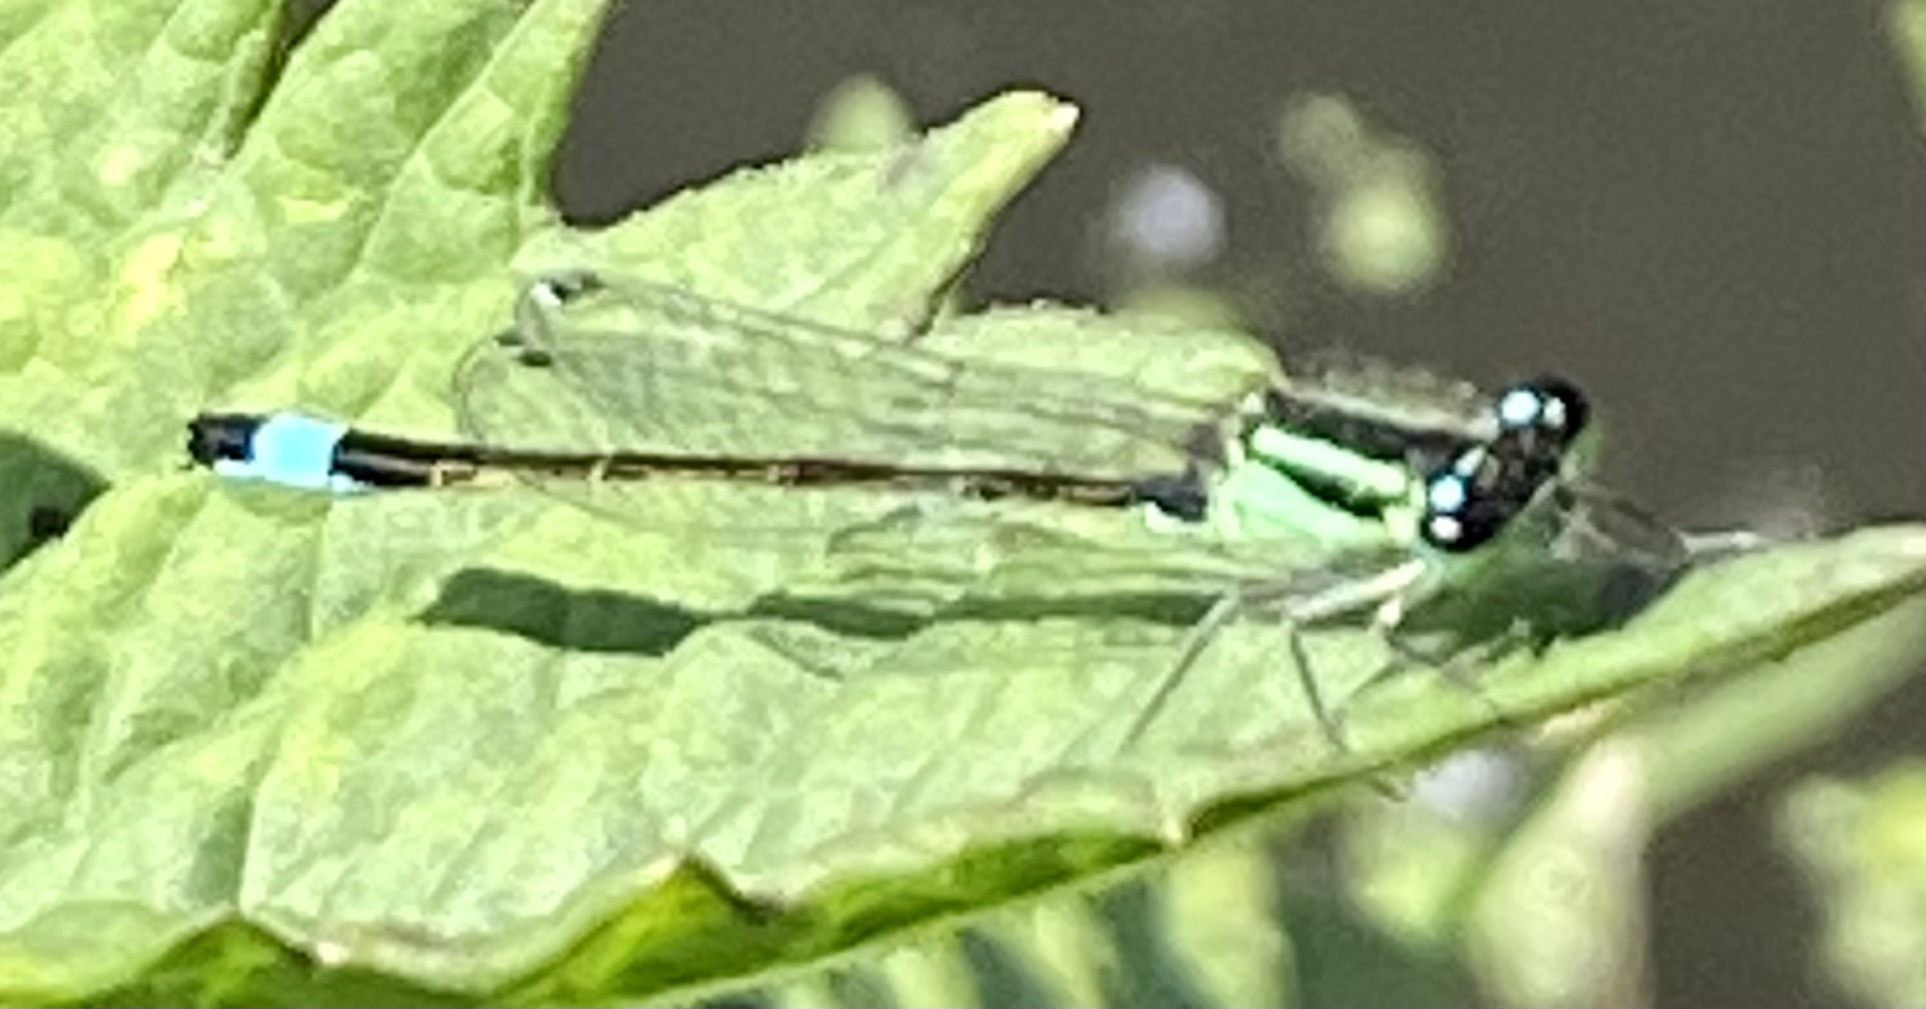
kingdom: Animalia
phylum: Arthropoda
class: Insecta
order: Odonata
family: Coenagrionidae
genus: Ischnura
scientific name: Ischnura elegans
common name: Blue-tailed damselfly
